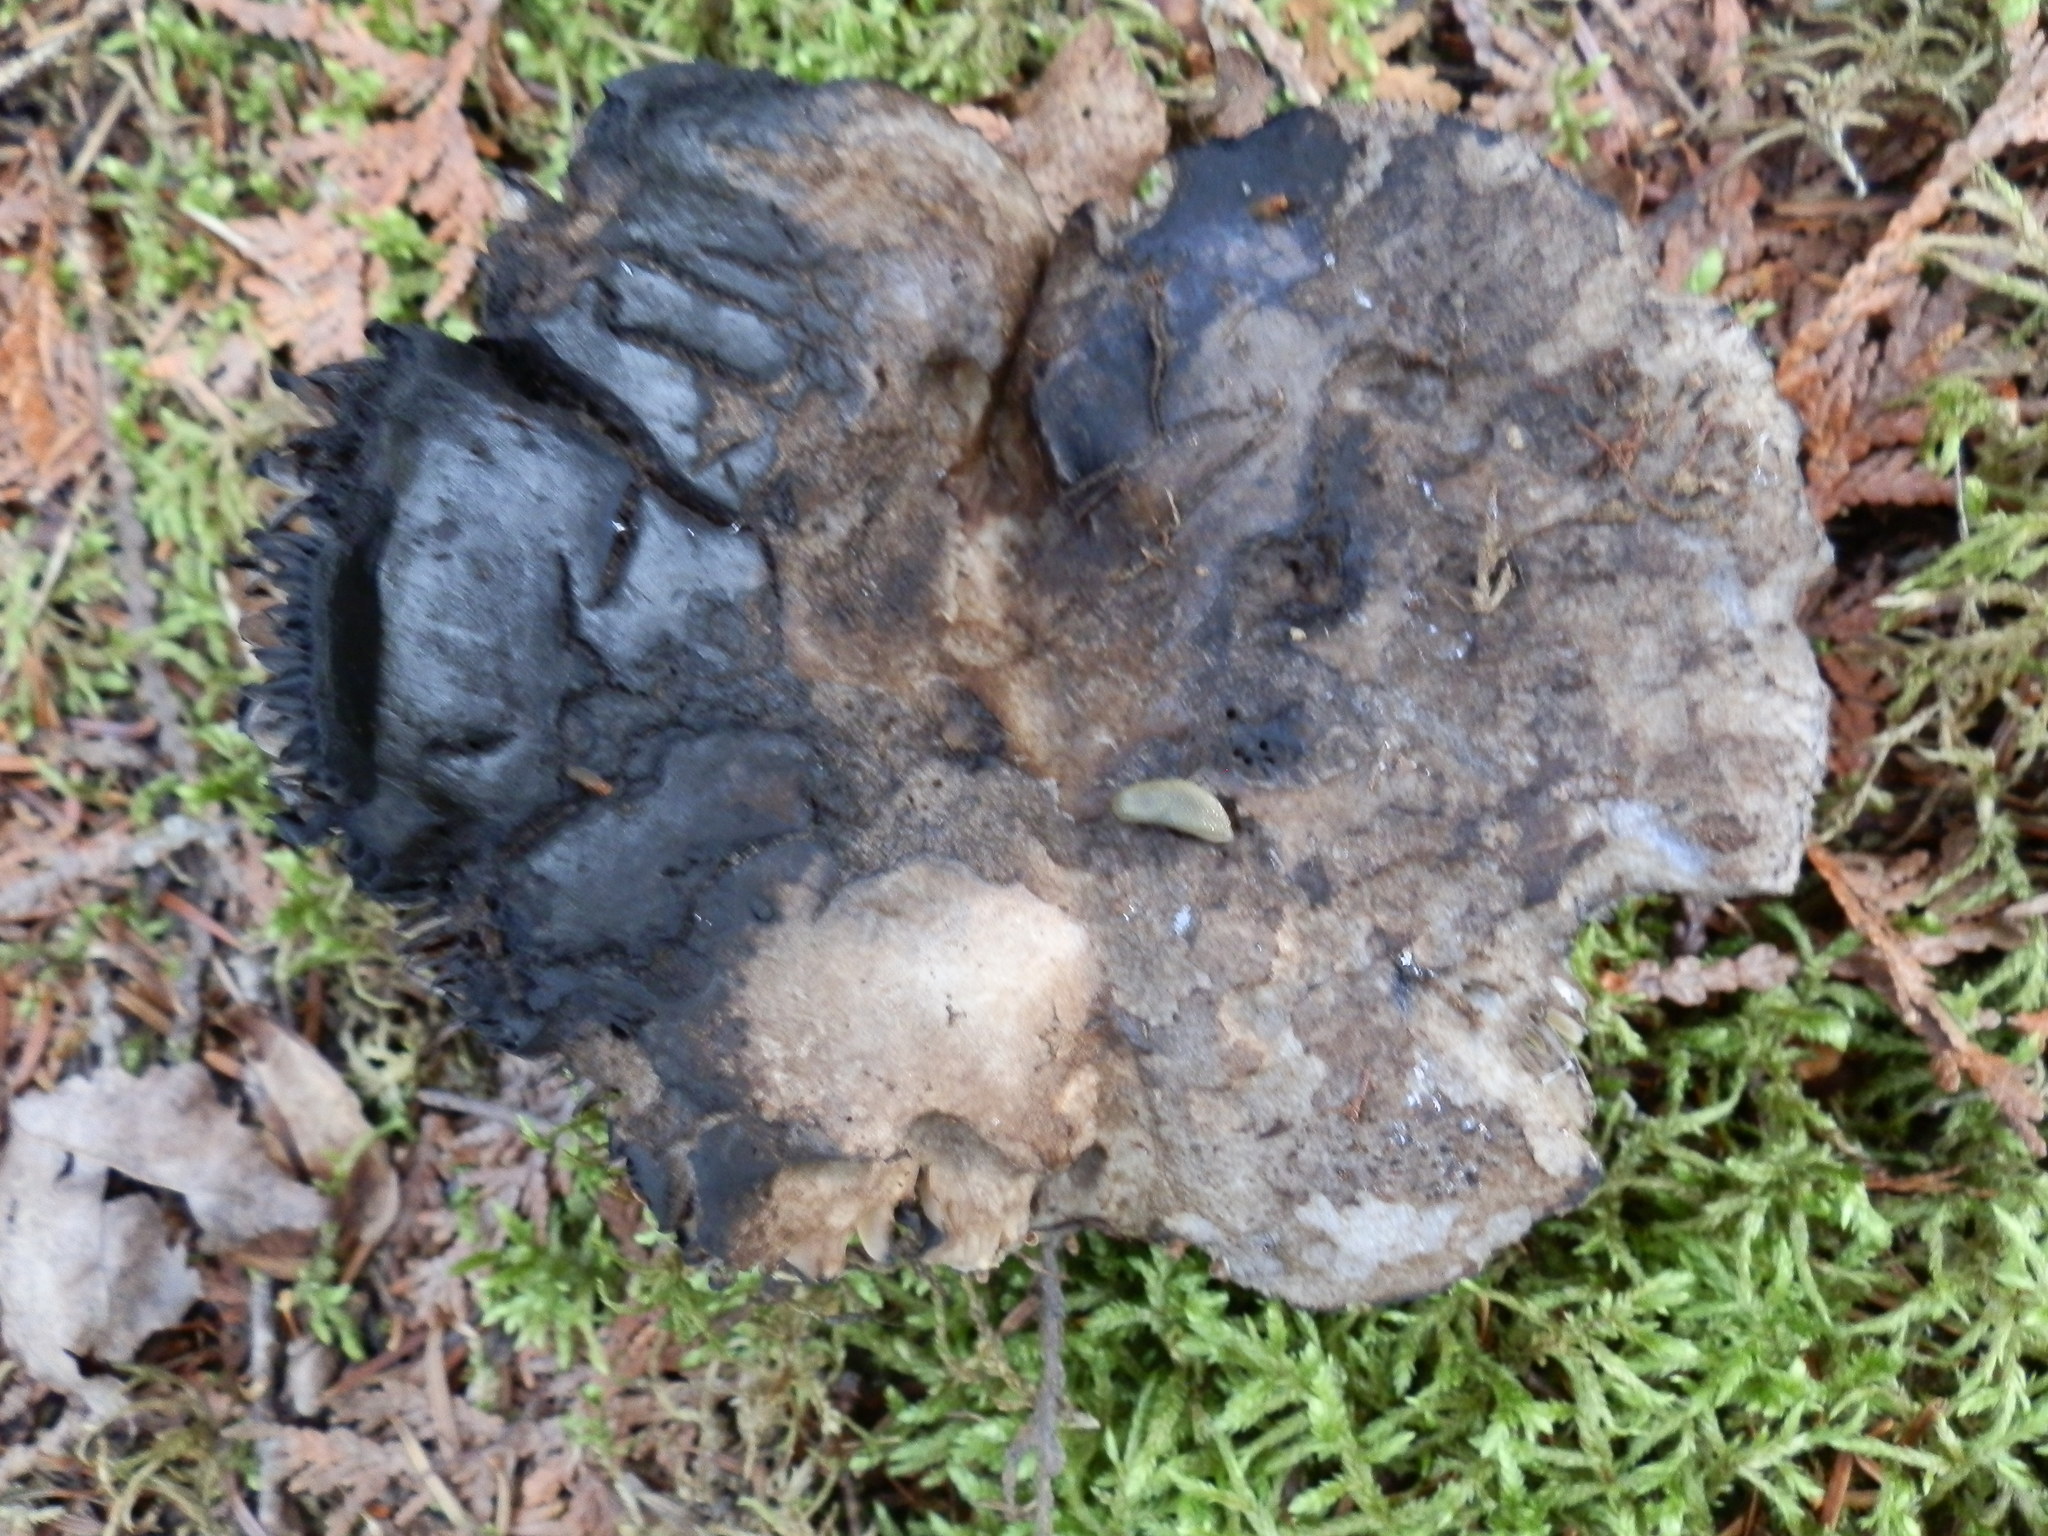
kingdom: Fungi
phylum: Basidiomycota
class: Agaricomycetes
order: Russulales
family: Russulaceae
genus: Russula
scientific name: Russula albonigra
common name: Menthol brittlegill
